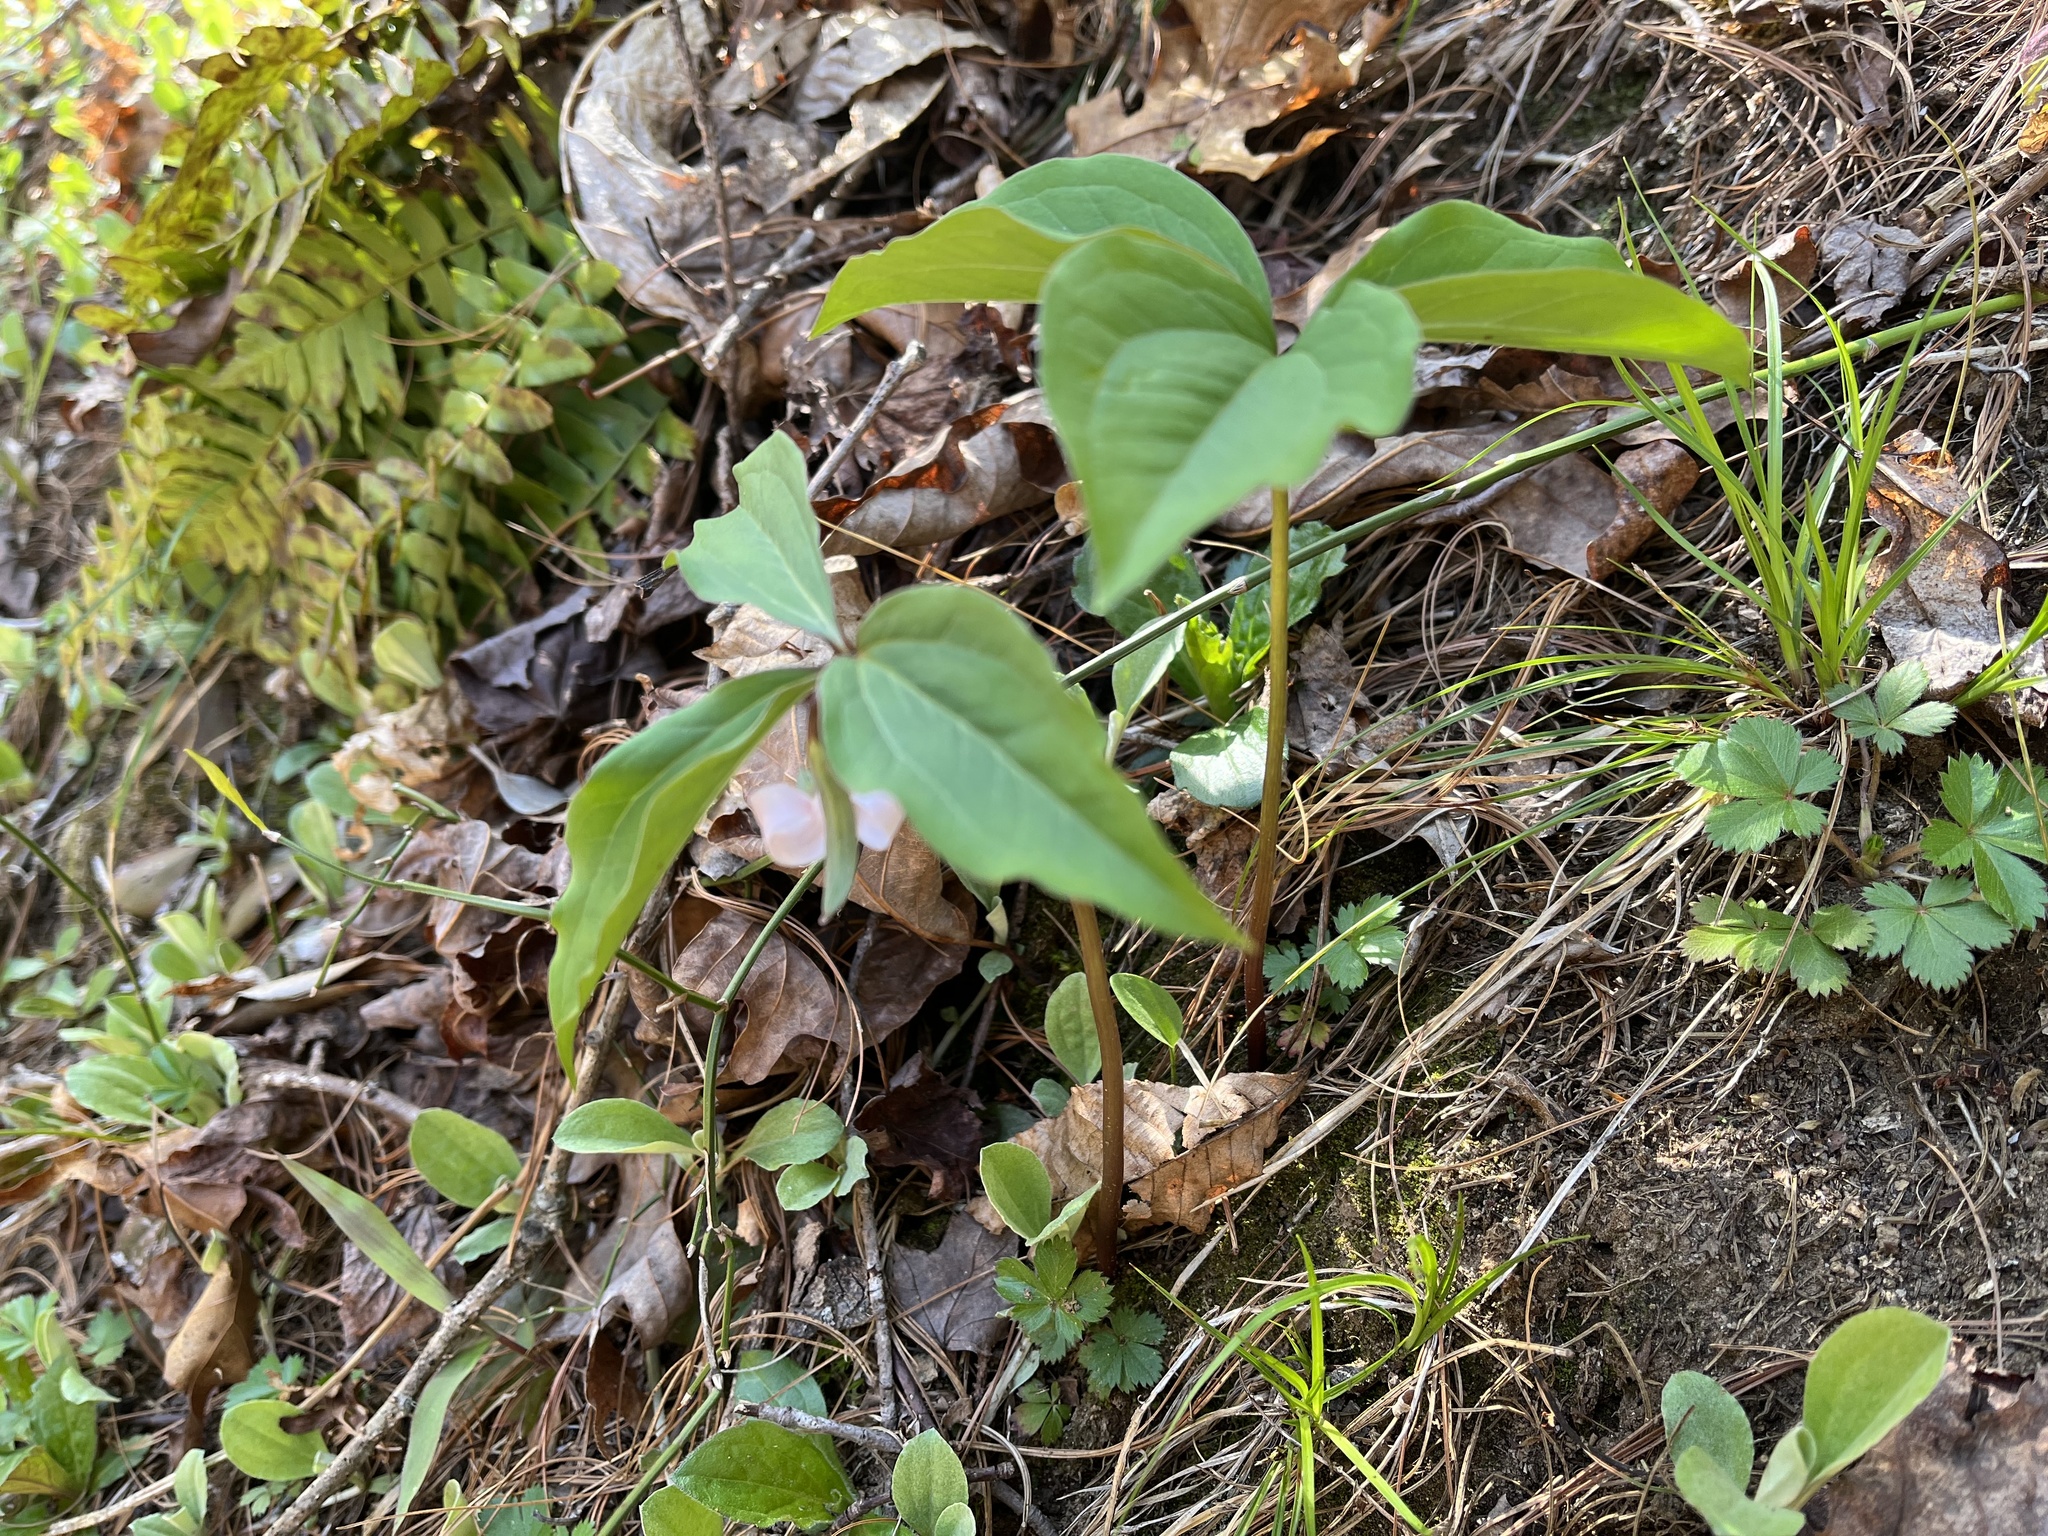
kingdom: Plantae
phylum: Tracheophyta
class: Liliopsida
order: Liliales
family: Melanthiaceae
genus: Trillium
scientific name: Trillium catesbaei
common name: Bashful trillium
